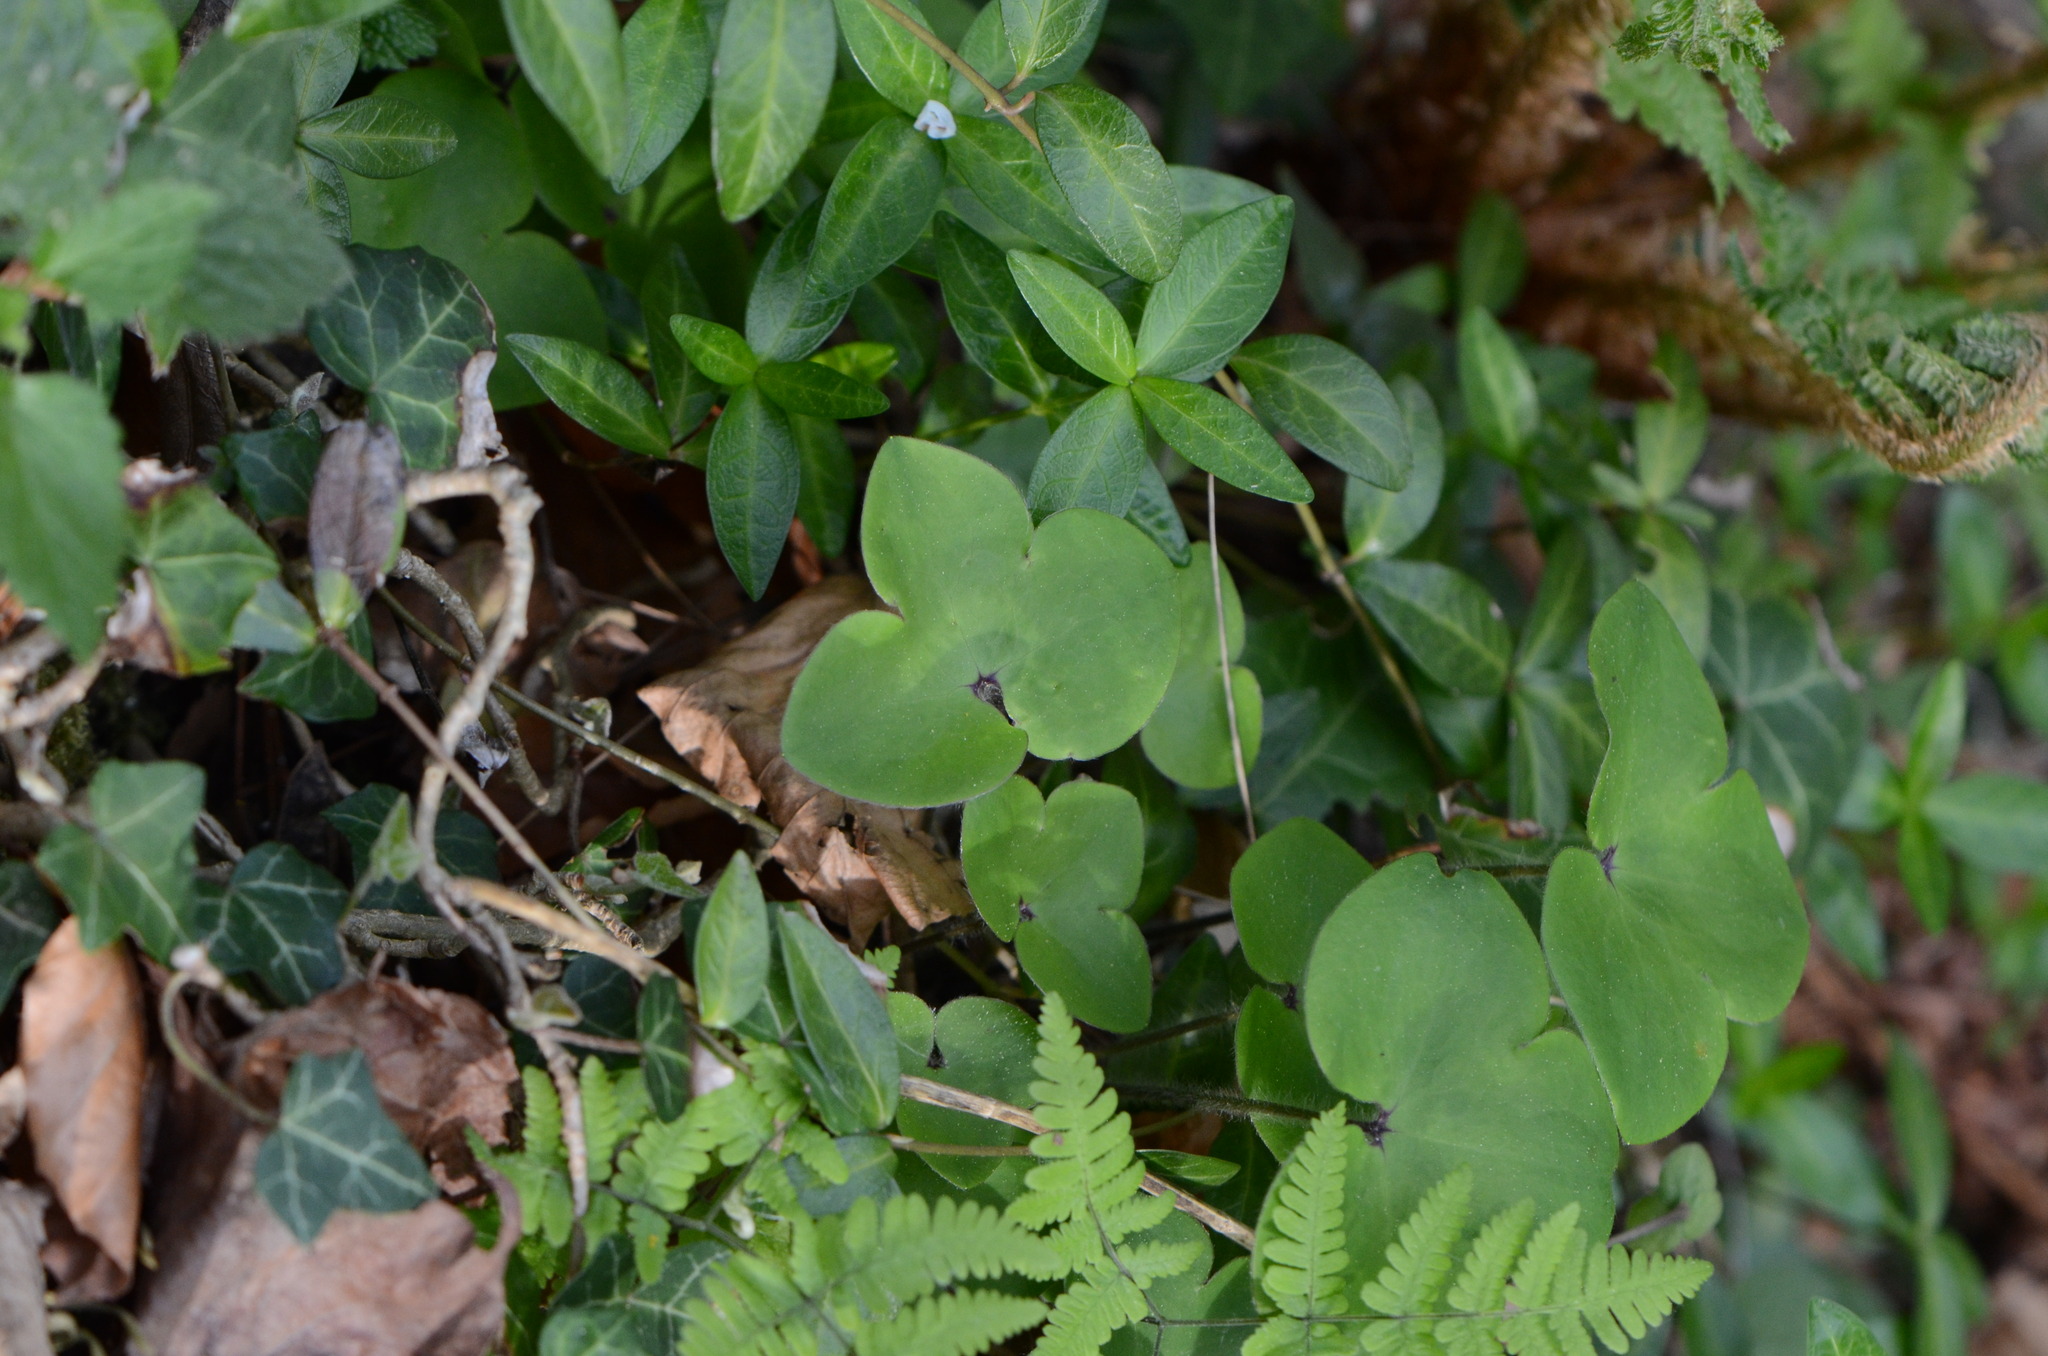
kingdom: Plantae
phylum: Tracheophyta
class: Magnoliopsida
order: Ranunculales
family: Ranunculaceae
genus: Hepatica
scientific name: Hepatica nobilis
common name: Liverleaf
